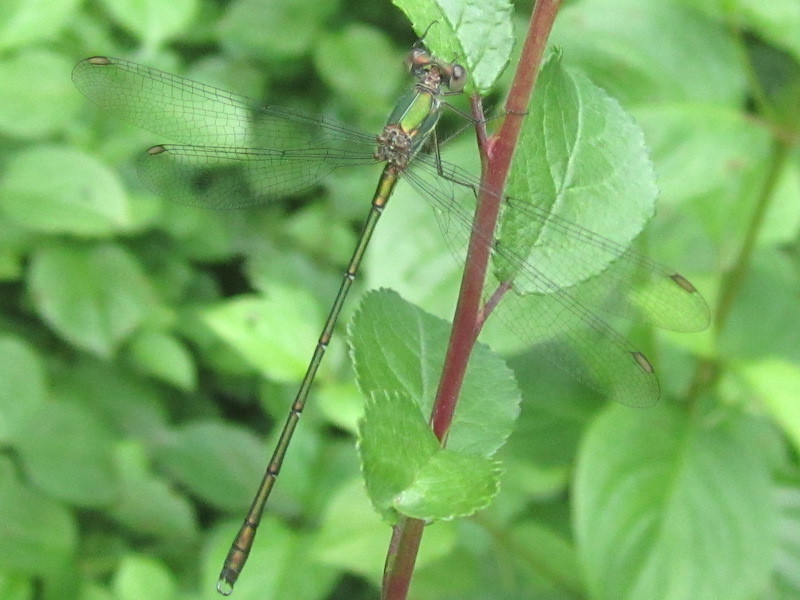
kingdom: Animalia
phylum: Arthropoda
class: Insecta
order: Odonata
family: Lestidae
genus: Chalcolestes
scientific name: Chalcolestes viridis
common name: Green emerald damselfly
